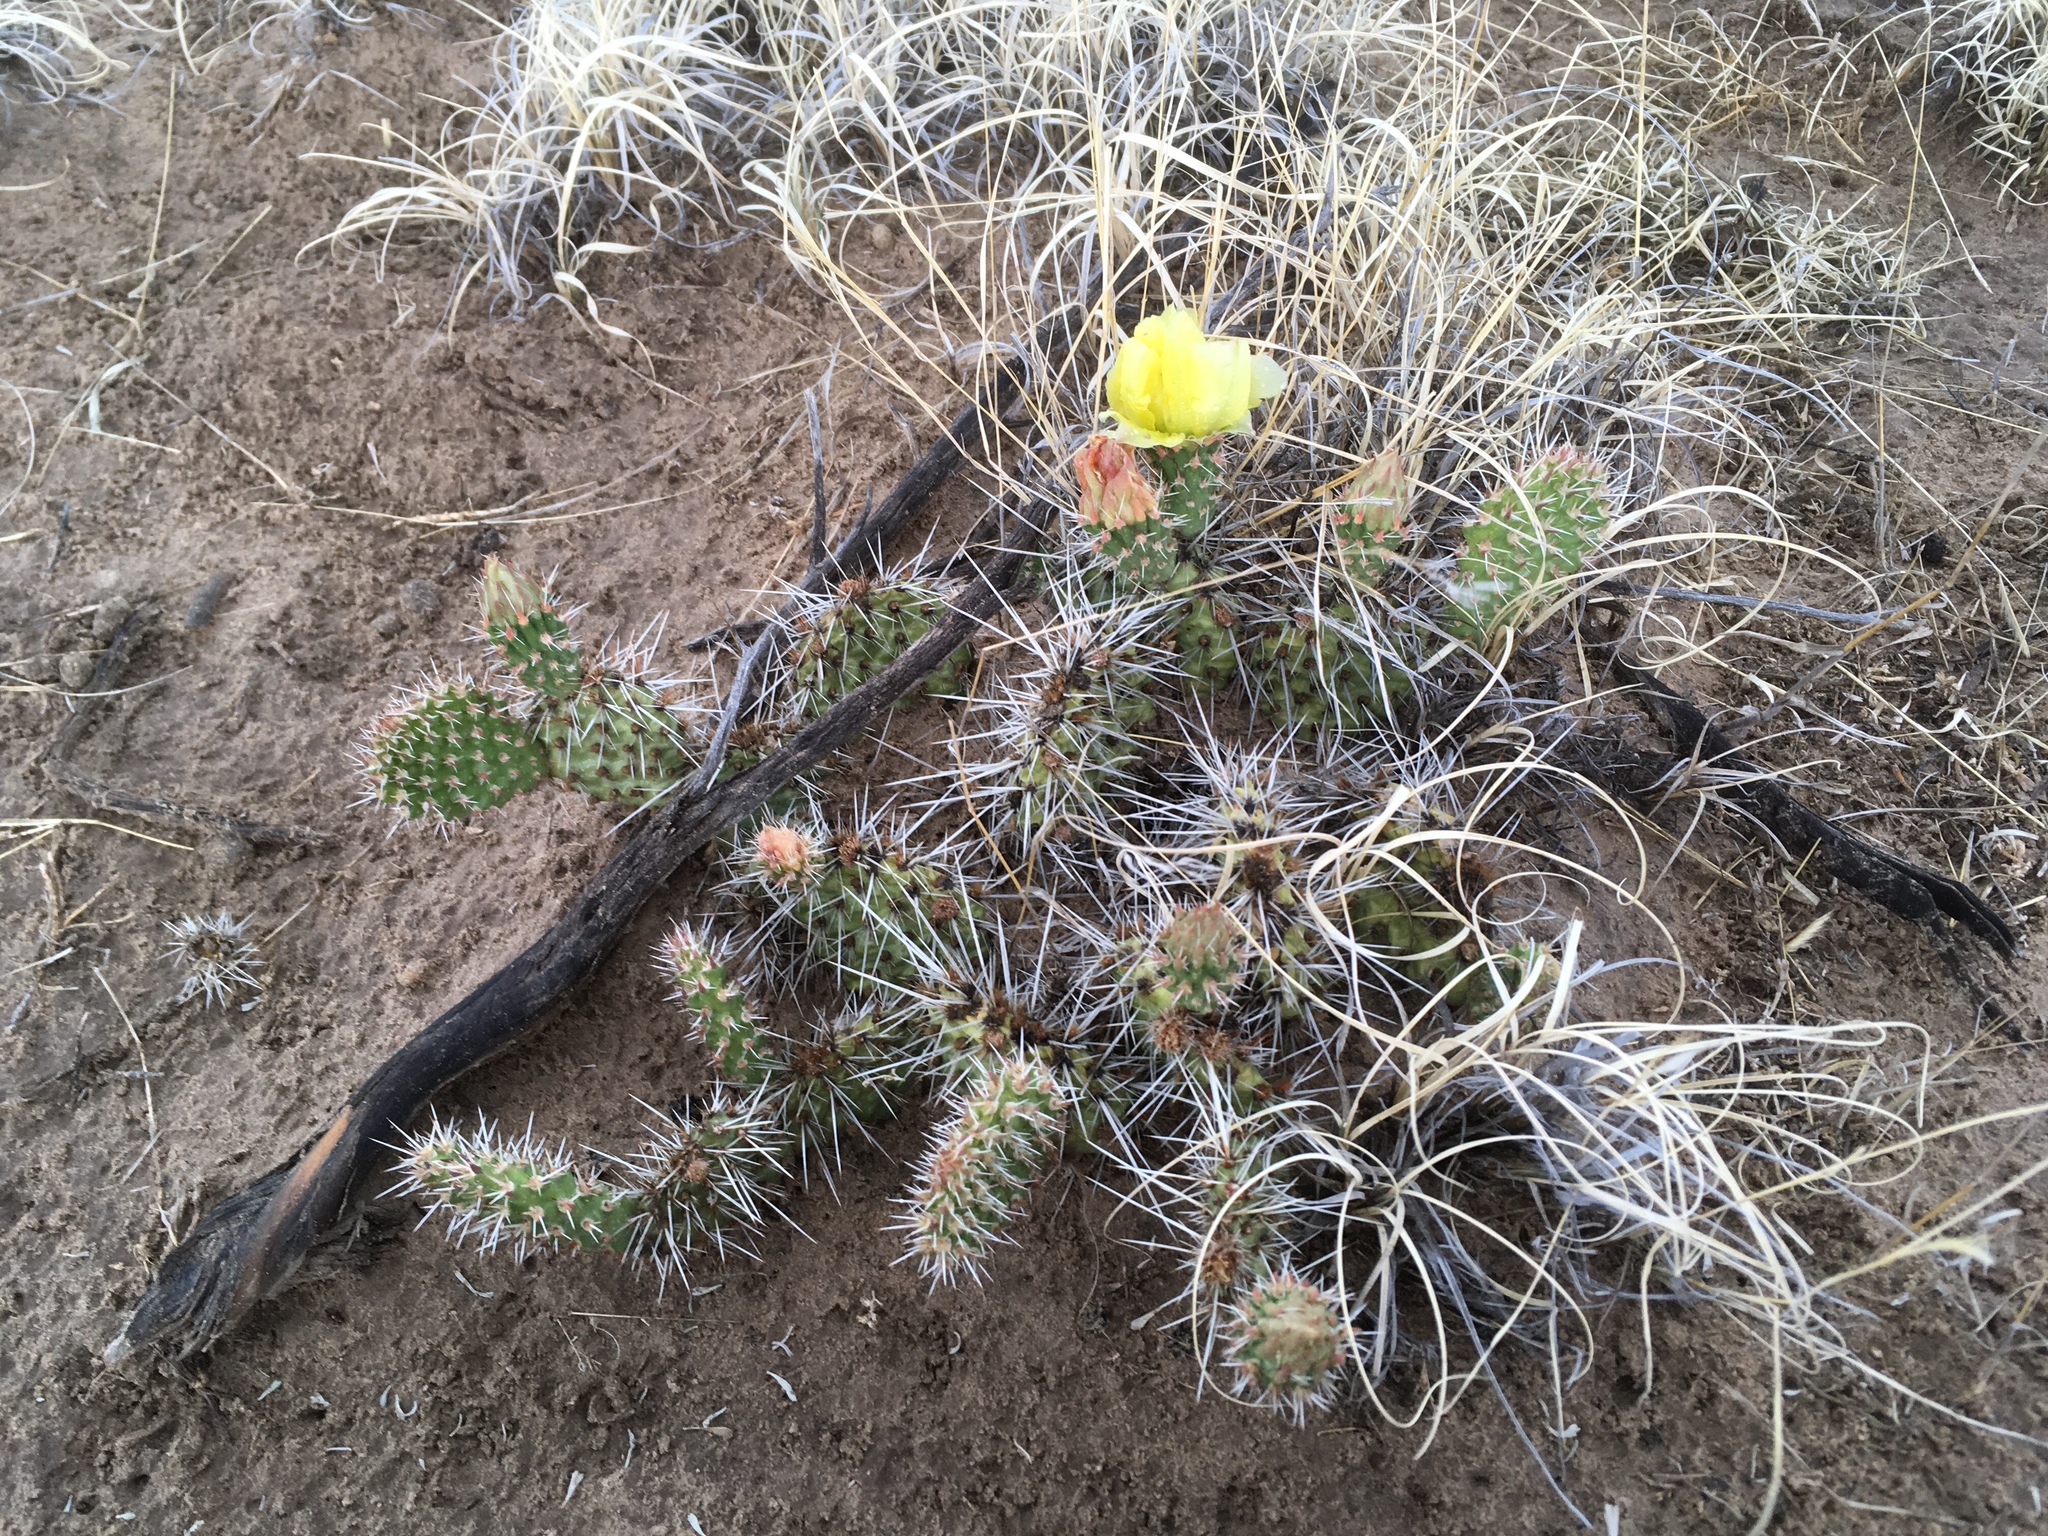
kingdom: Plantae
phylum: Tracheophyta
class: Magnoliopsida
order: Caryophyllales
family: Cactaceae
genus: Opuntia
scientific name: Opuntia polyacantha
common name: Plains prickly-pear
